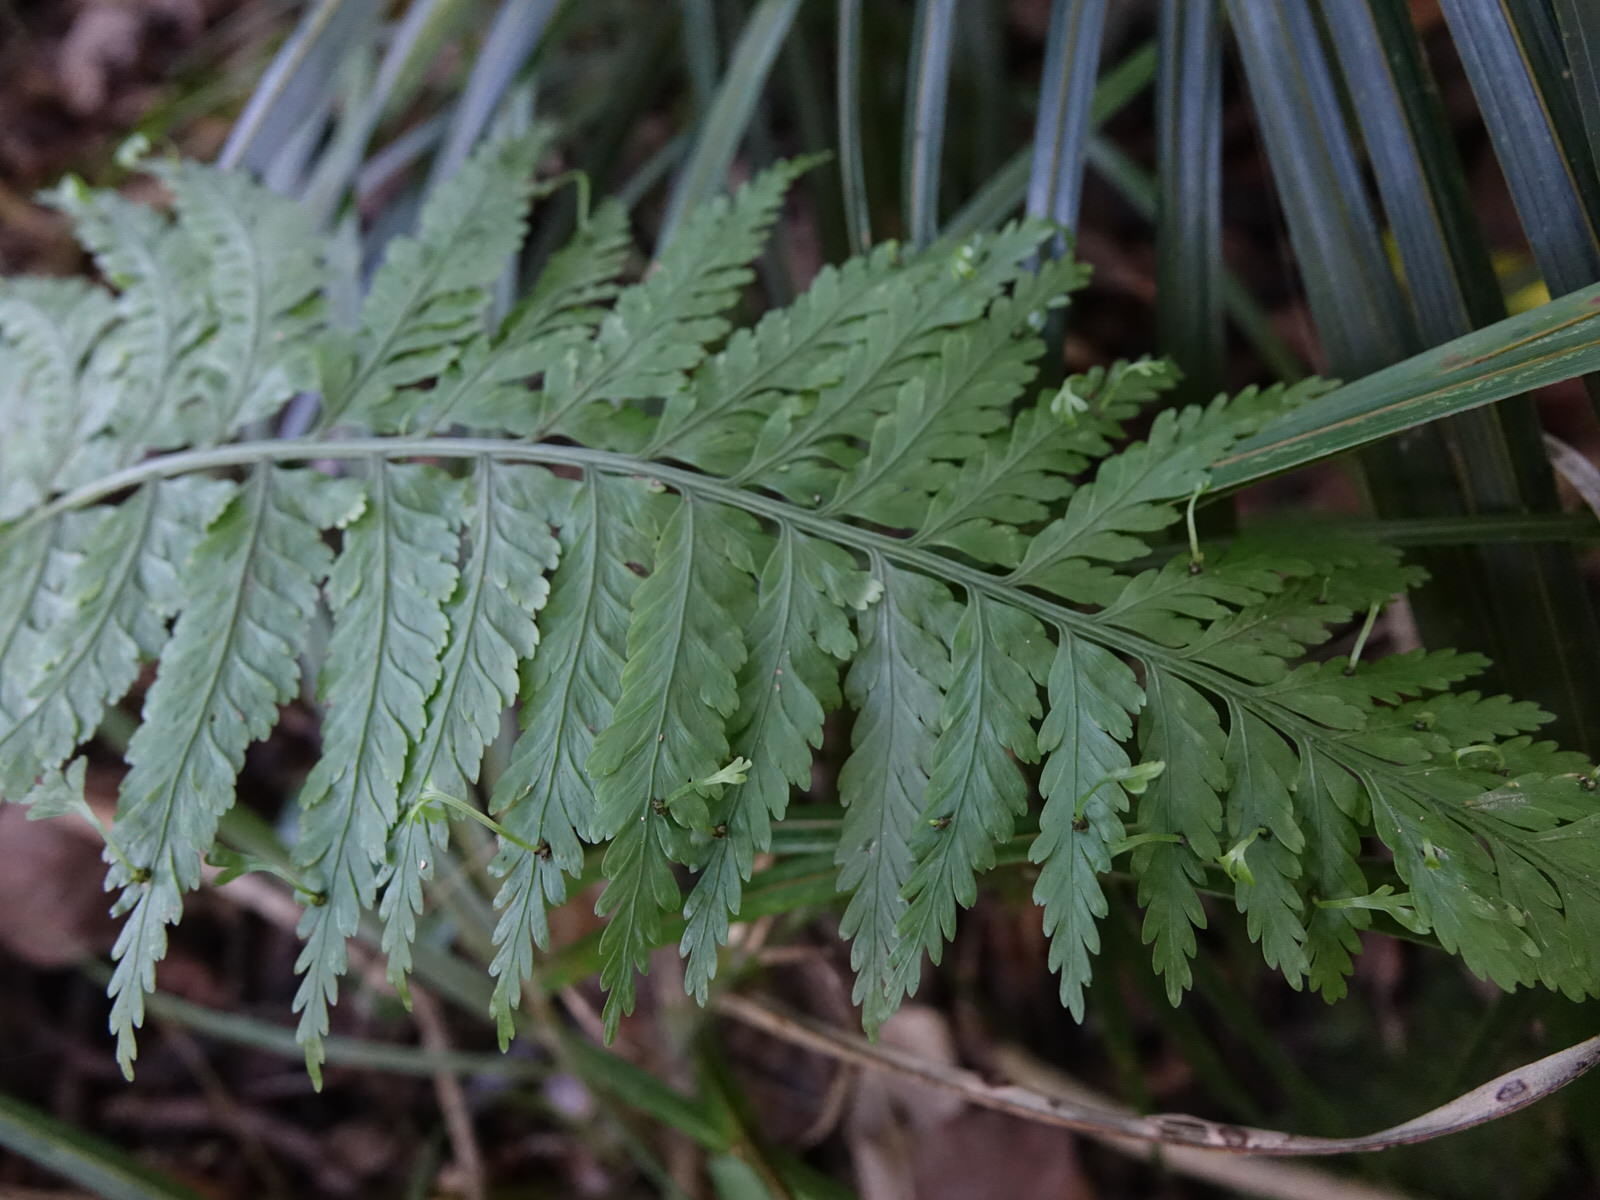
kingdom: Plantae
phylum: Tracheophyta
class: Polypodiopsida
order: Polypodiales
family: Aspleniaceae
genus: Asplenium
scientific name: Asplenium bulbiferum
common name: Mother fern
